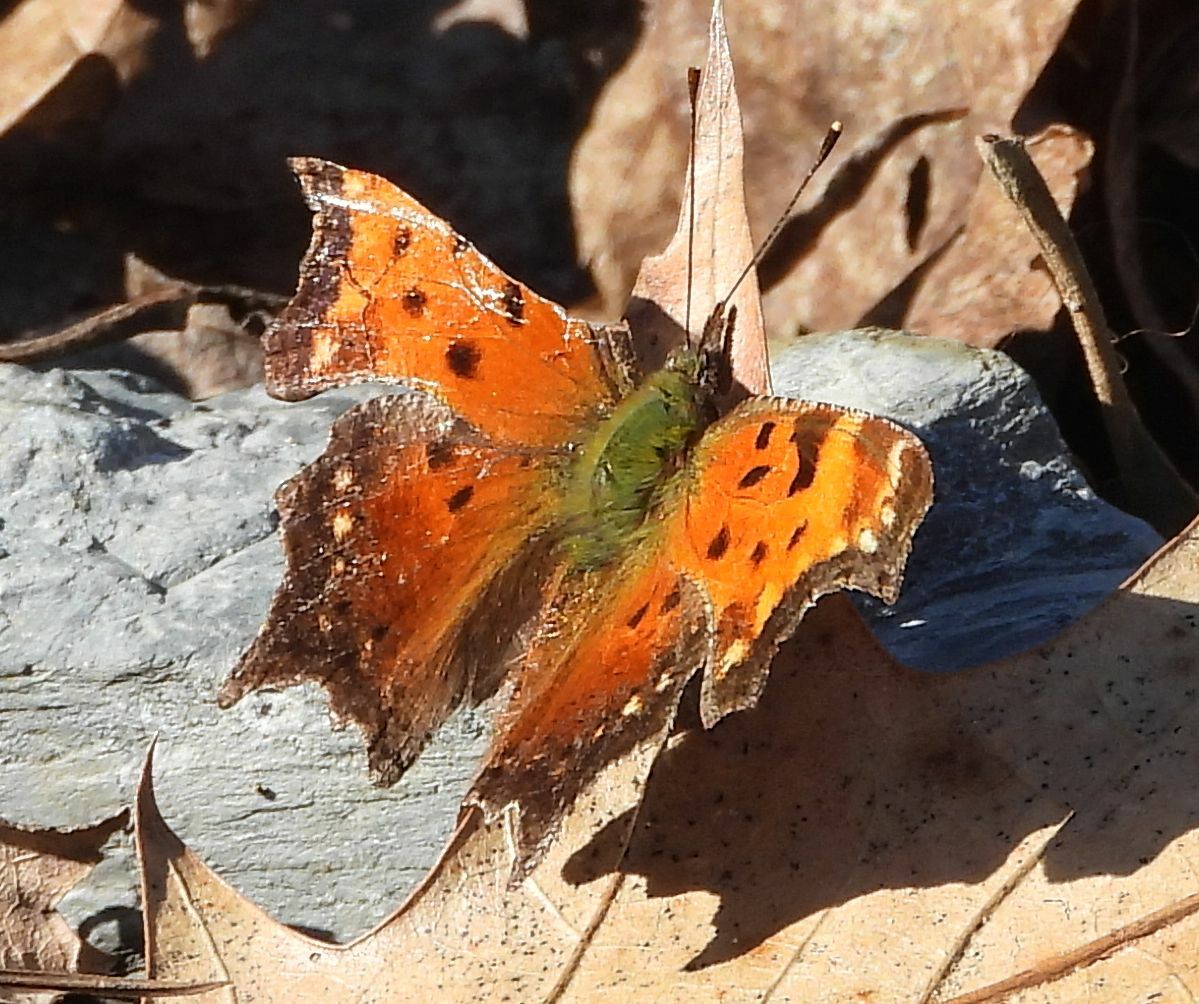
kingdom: Animalia
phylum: Arthropoda
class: Insecta
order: Lepidoptera
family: Nymphalidae
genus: Polygonia
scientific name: Polygonia progne
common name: Gray comma
